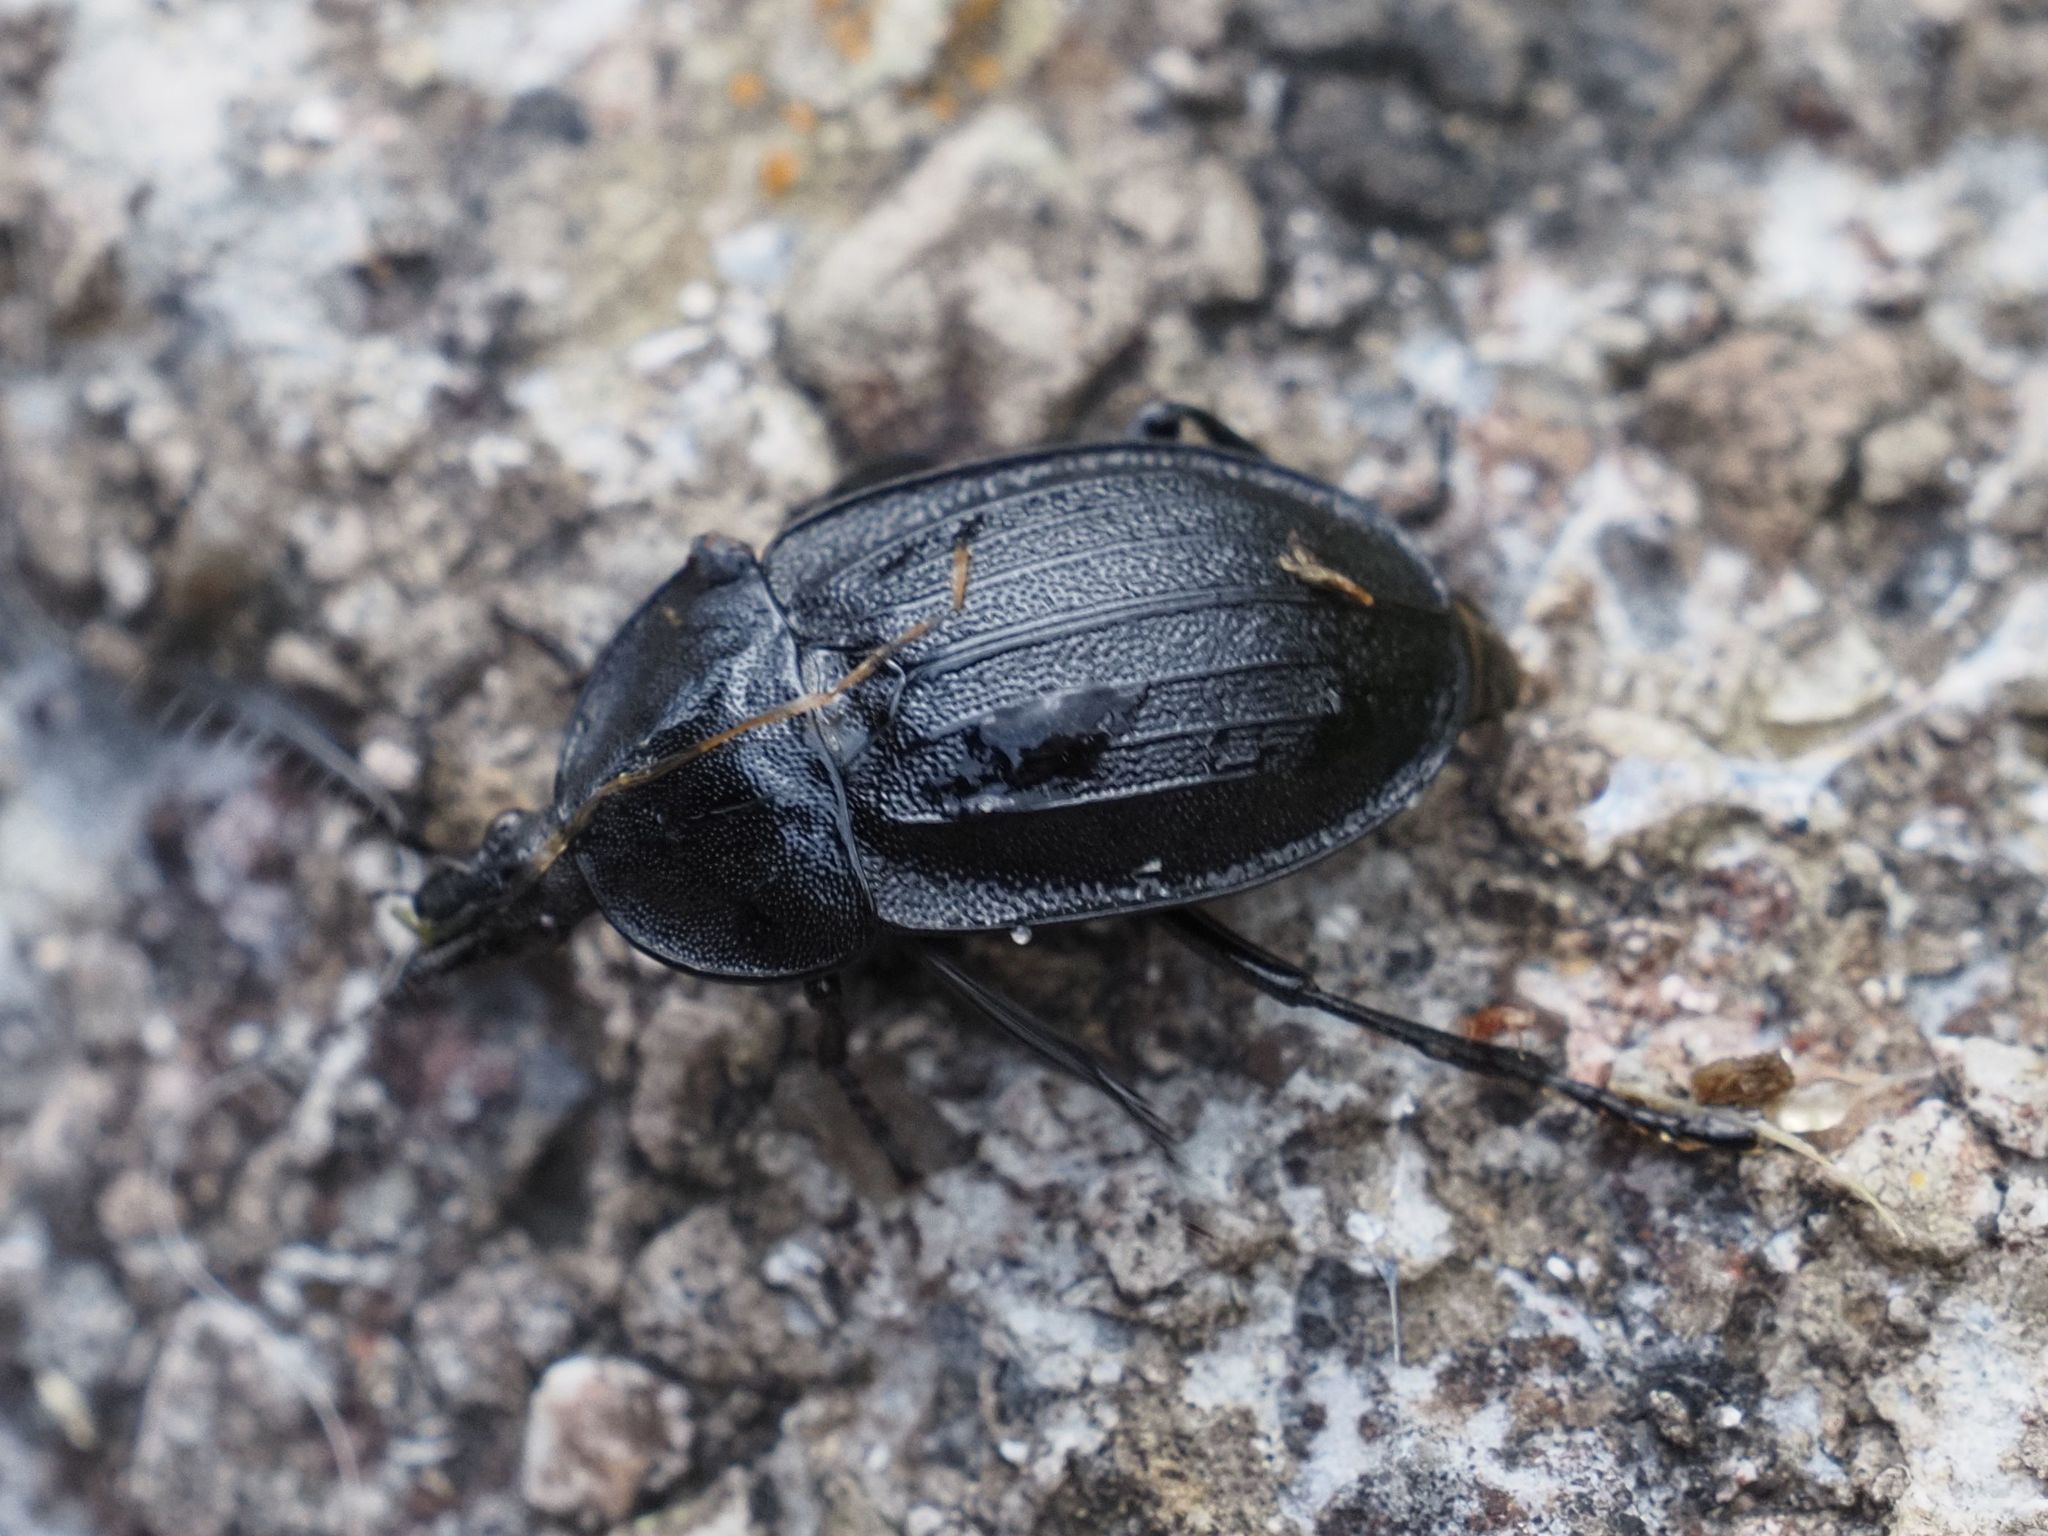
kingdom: Animalia
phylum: Arthropoda
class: Insecta
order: Coleoptera
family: Staphylinidae
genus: Silpha
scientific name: Silpha atrata
